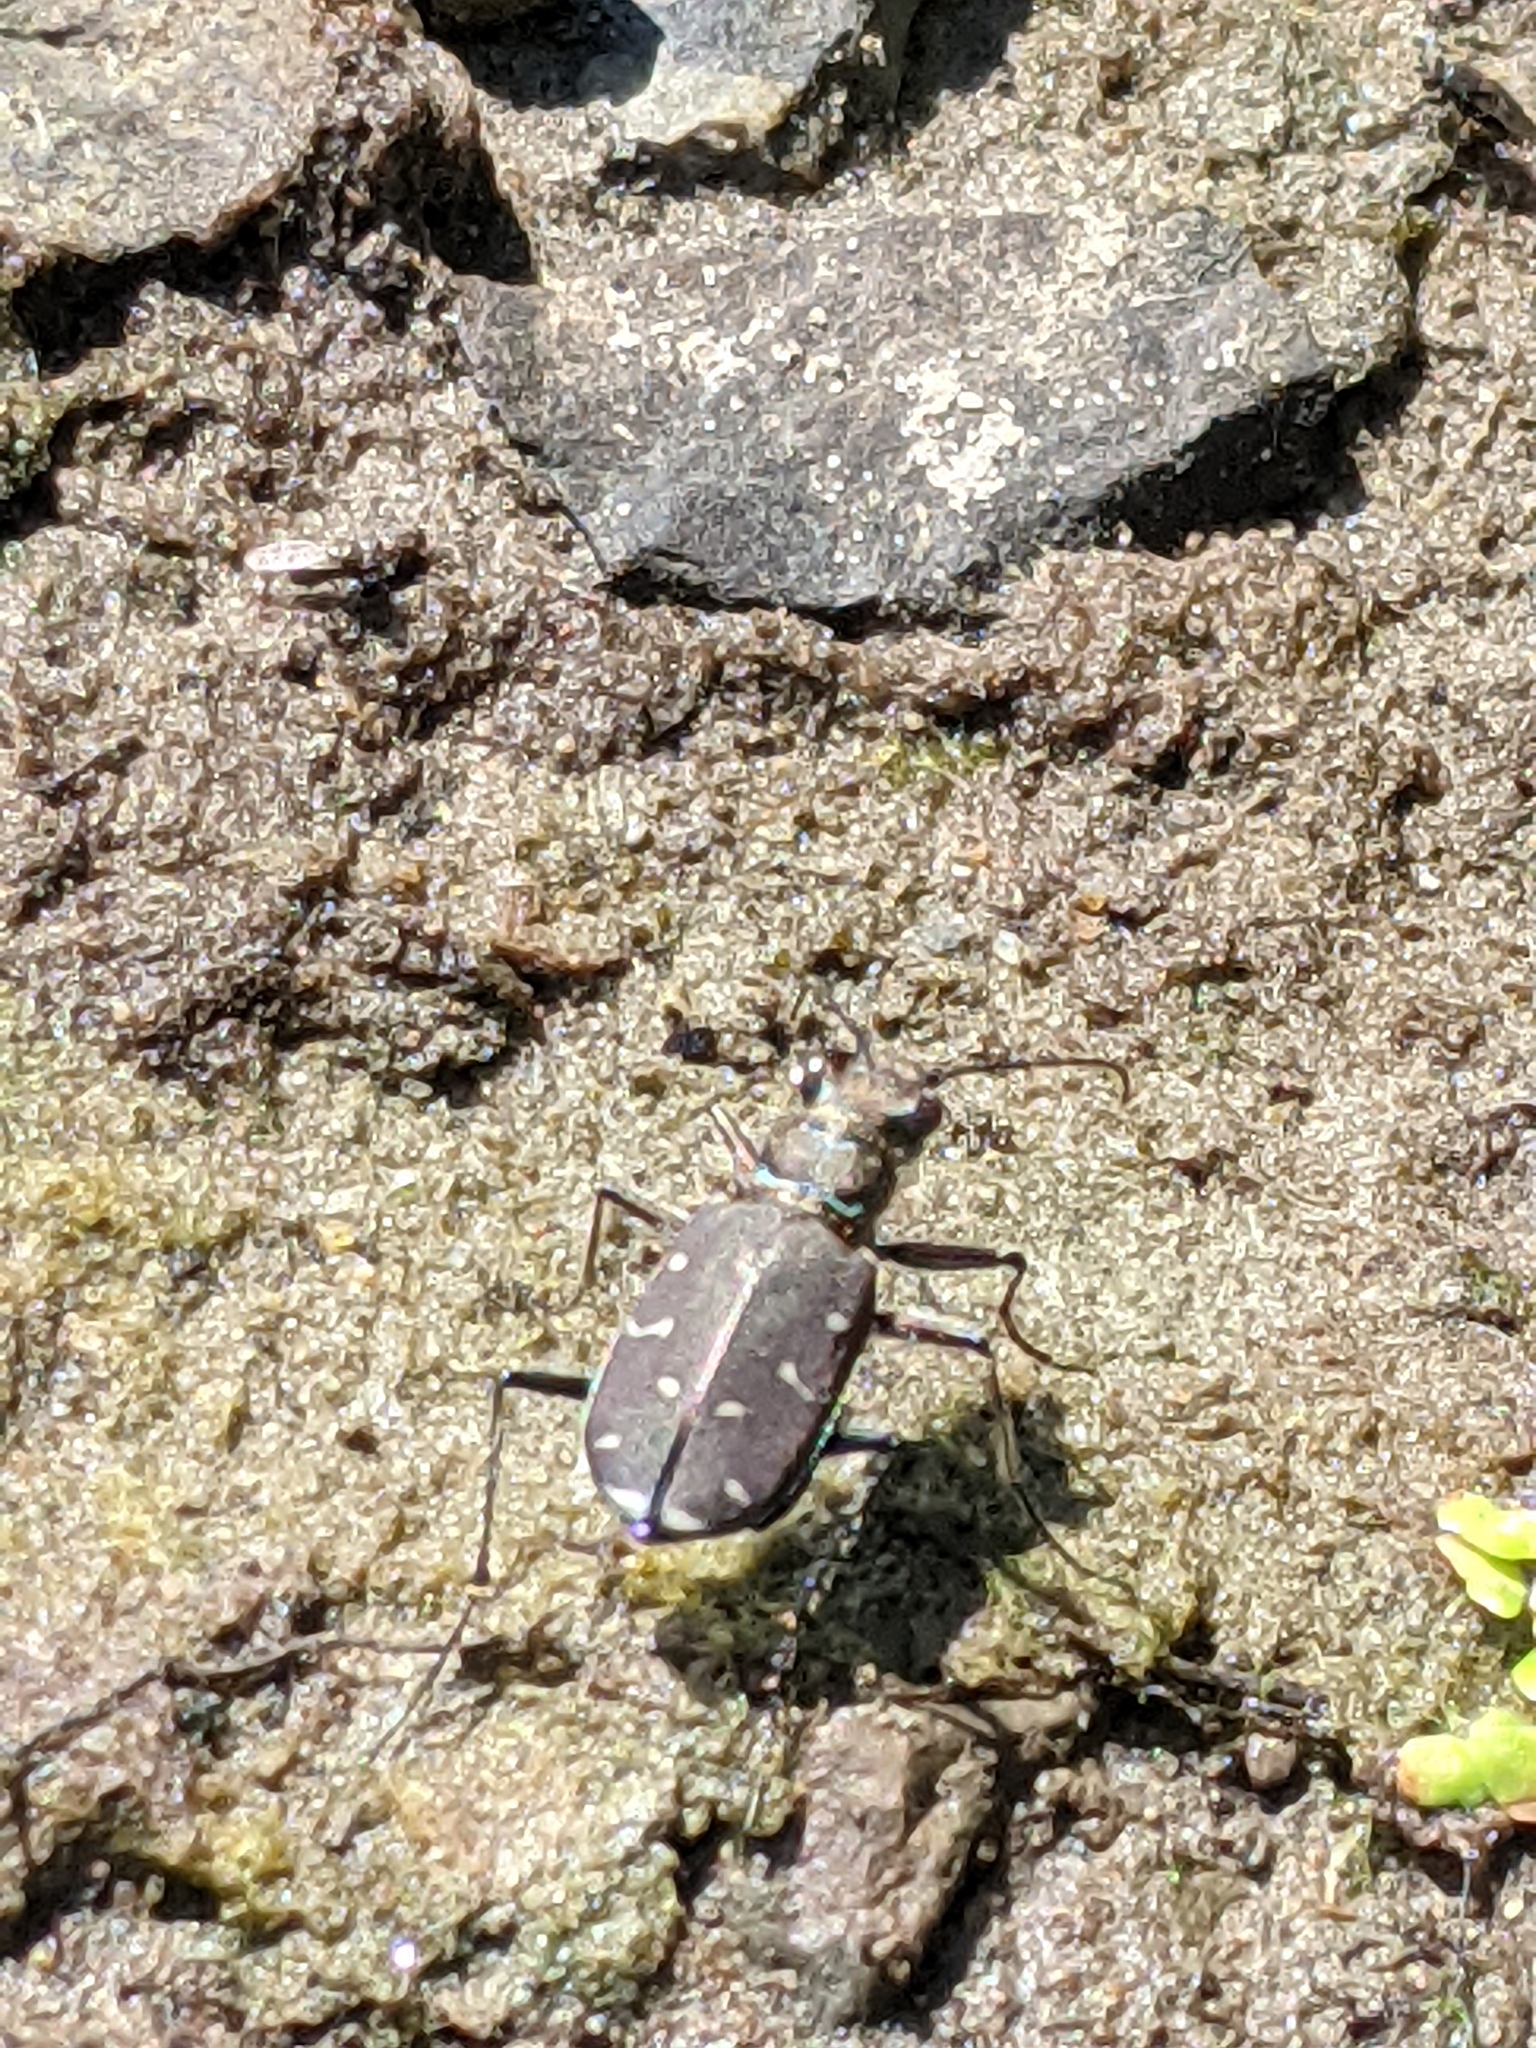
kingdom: Animalia
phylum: Arthropoda
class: Insecta
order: Coleoptera
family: Carabidae
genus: Cicindela
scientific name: Cicindela duodecimguttata
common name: Twelve-spotted tiger beetle
